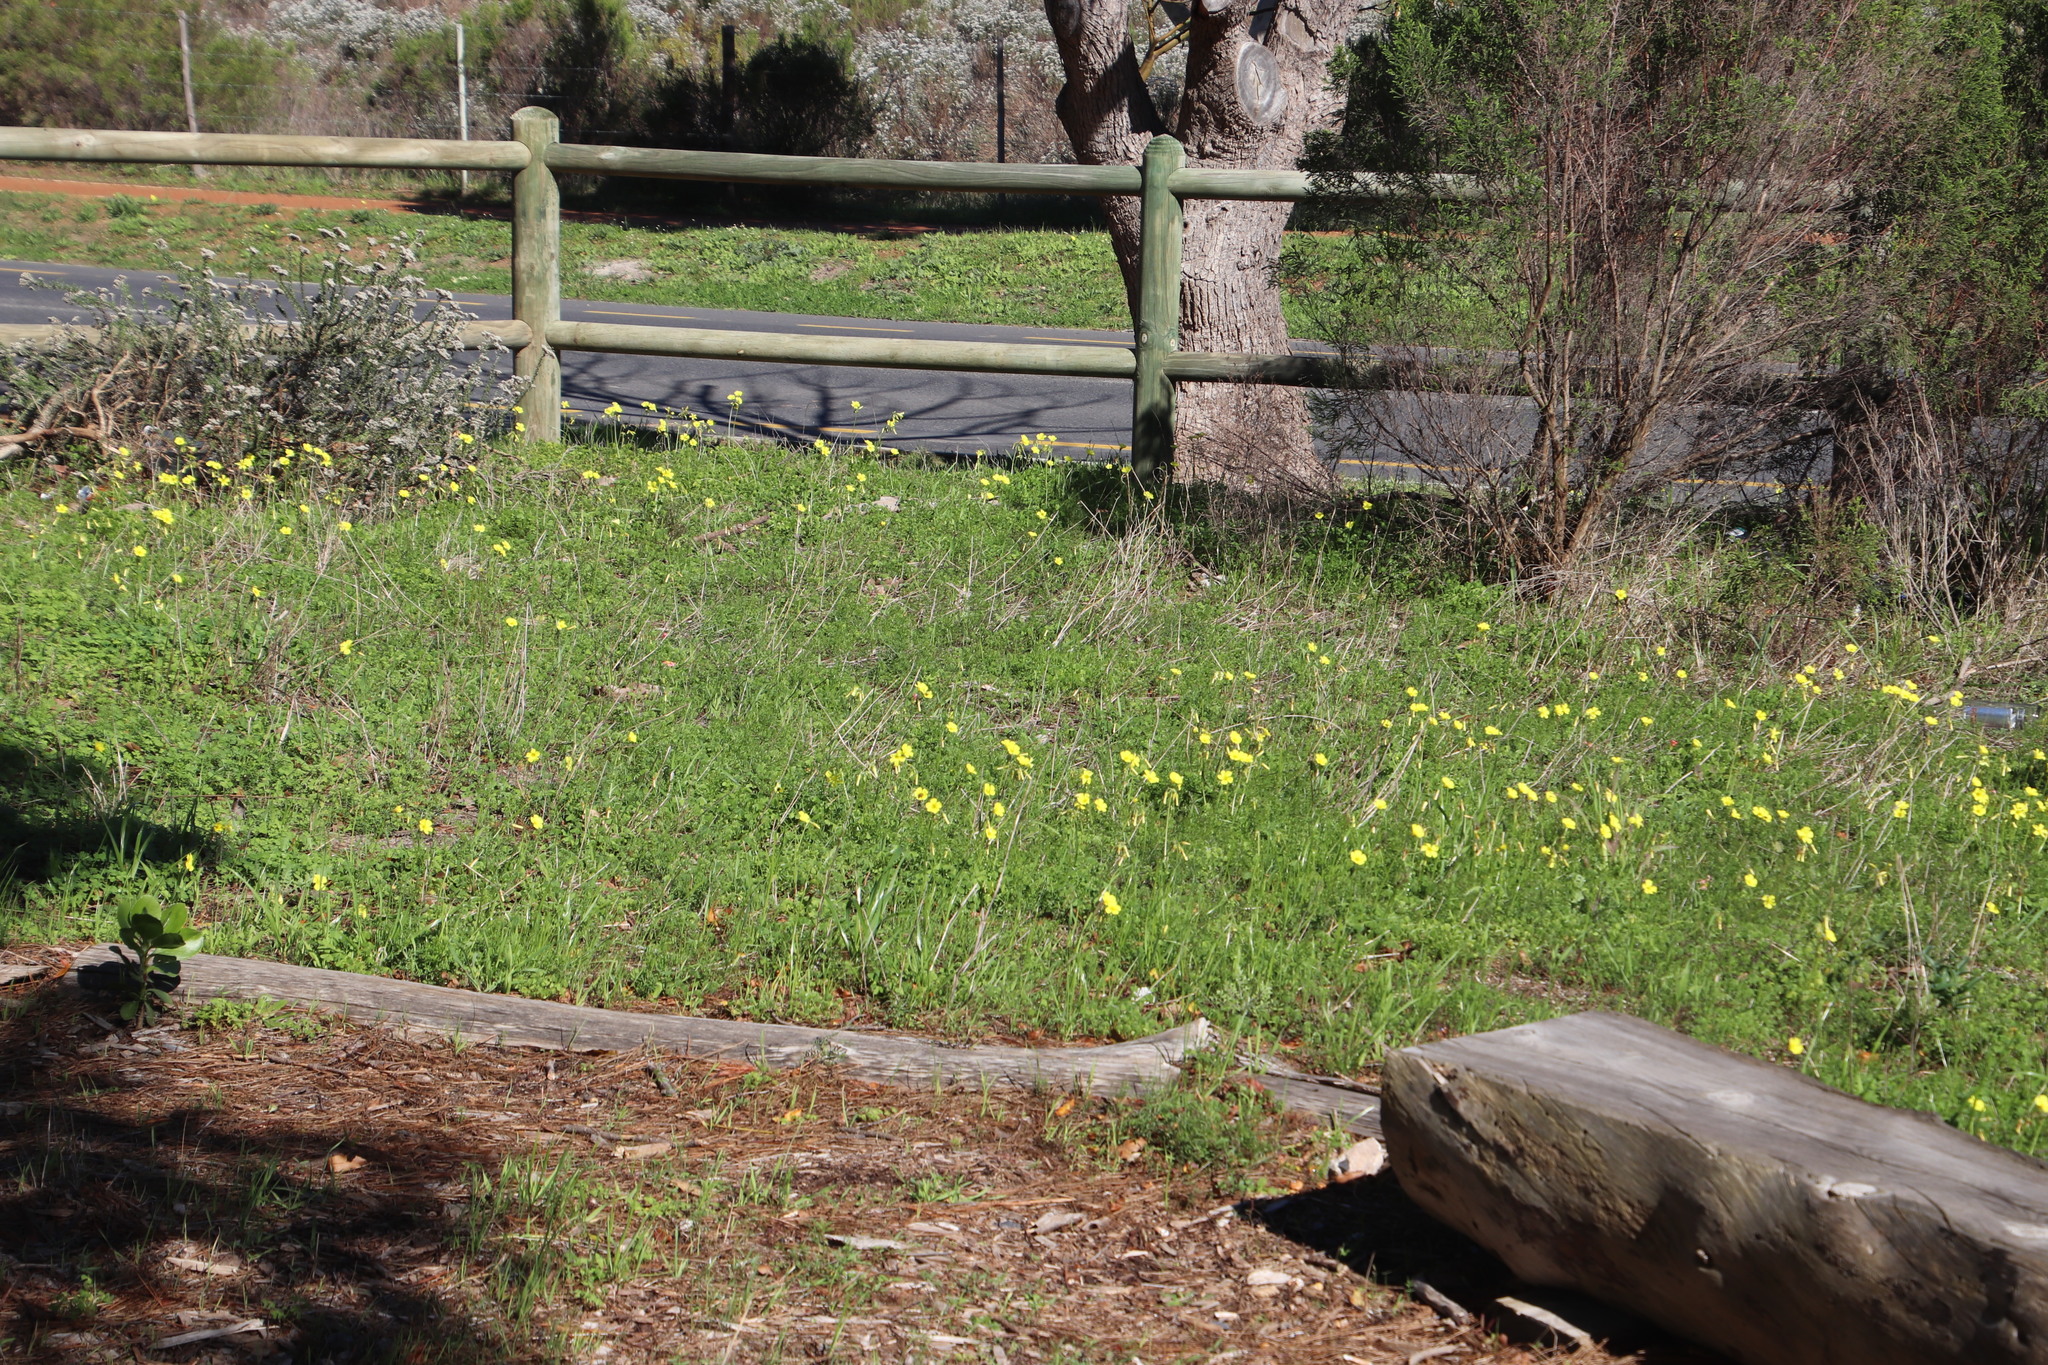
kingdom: Plantae
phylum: Tracheophyta
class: Magnoliopsida
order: Oxalidales
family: Oxalidaceae
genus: Oxalis
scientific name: Oxalis pes-caprae
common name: Bermuda-buttercup
